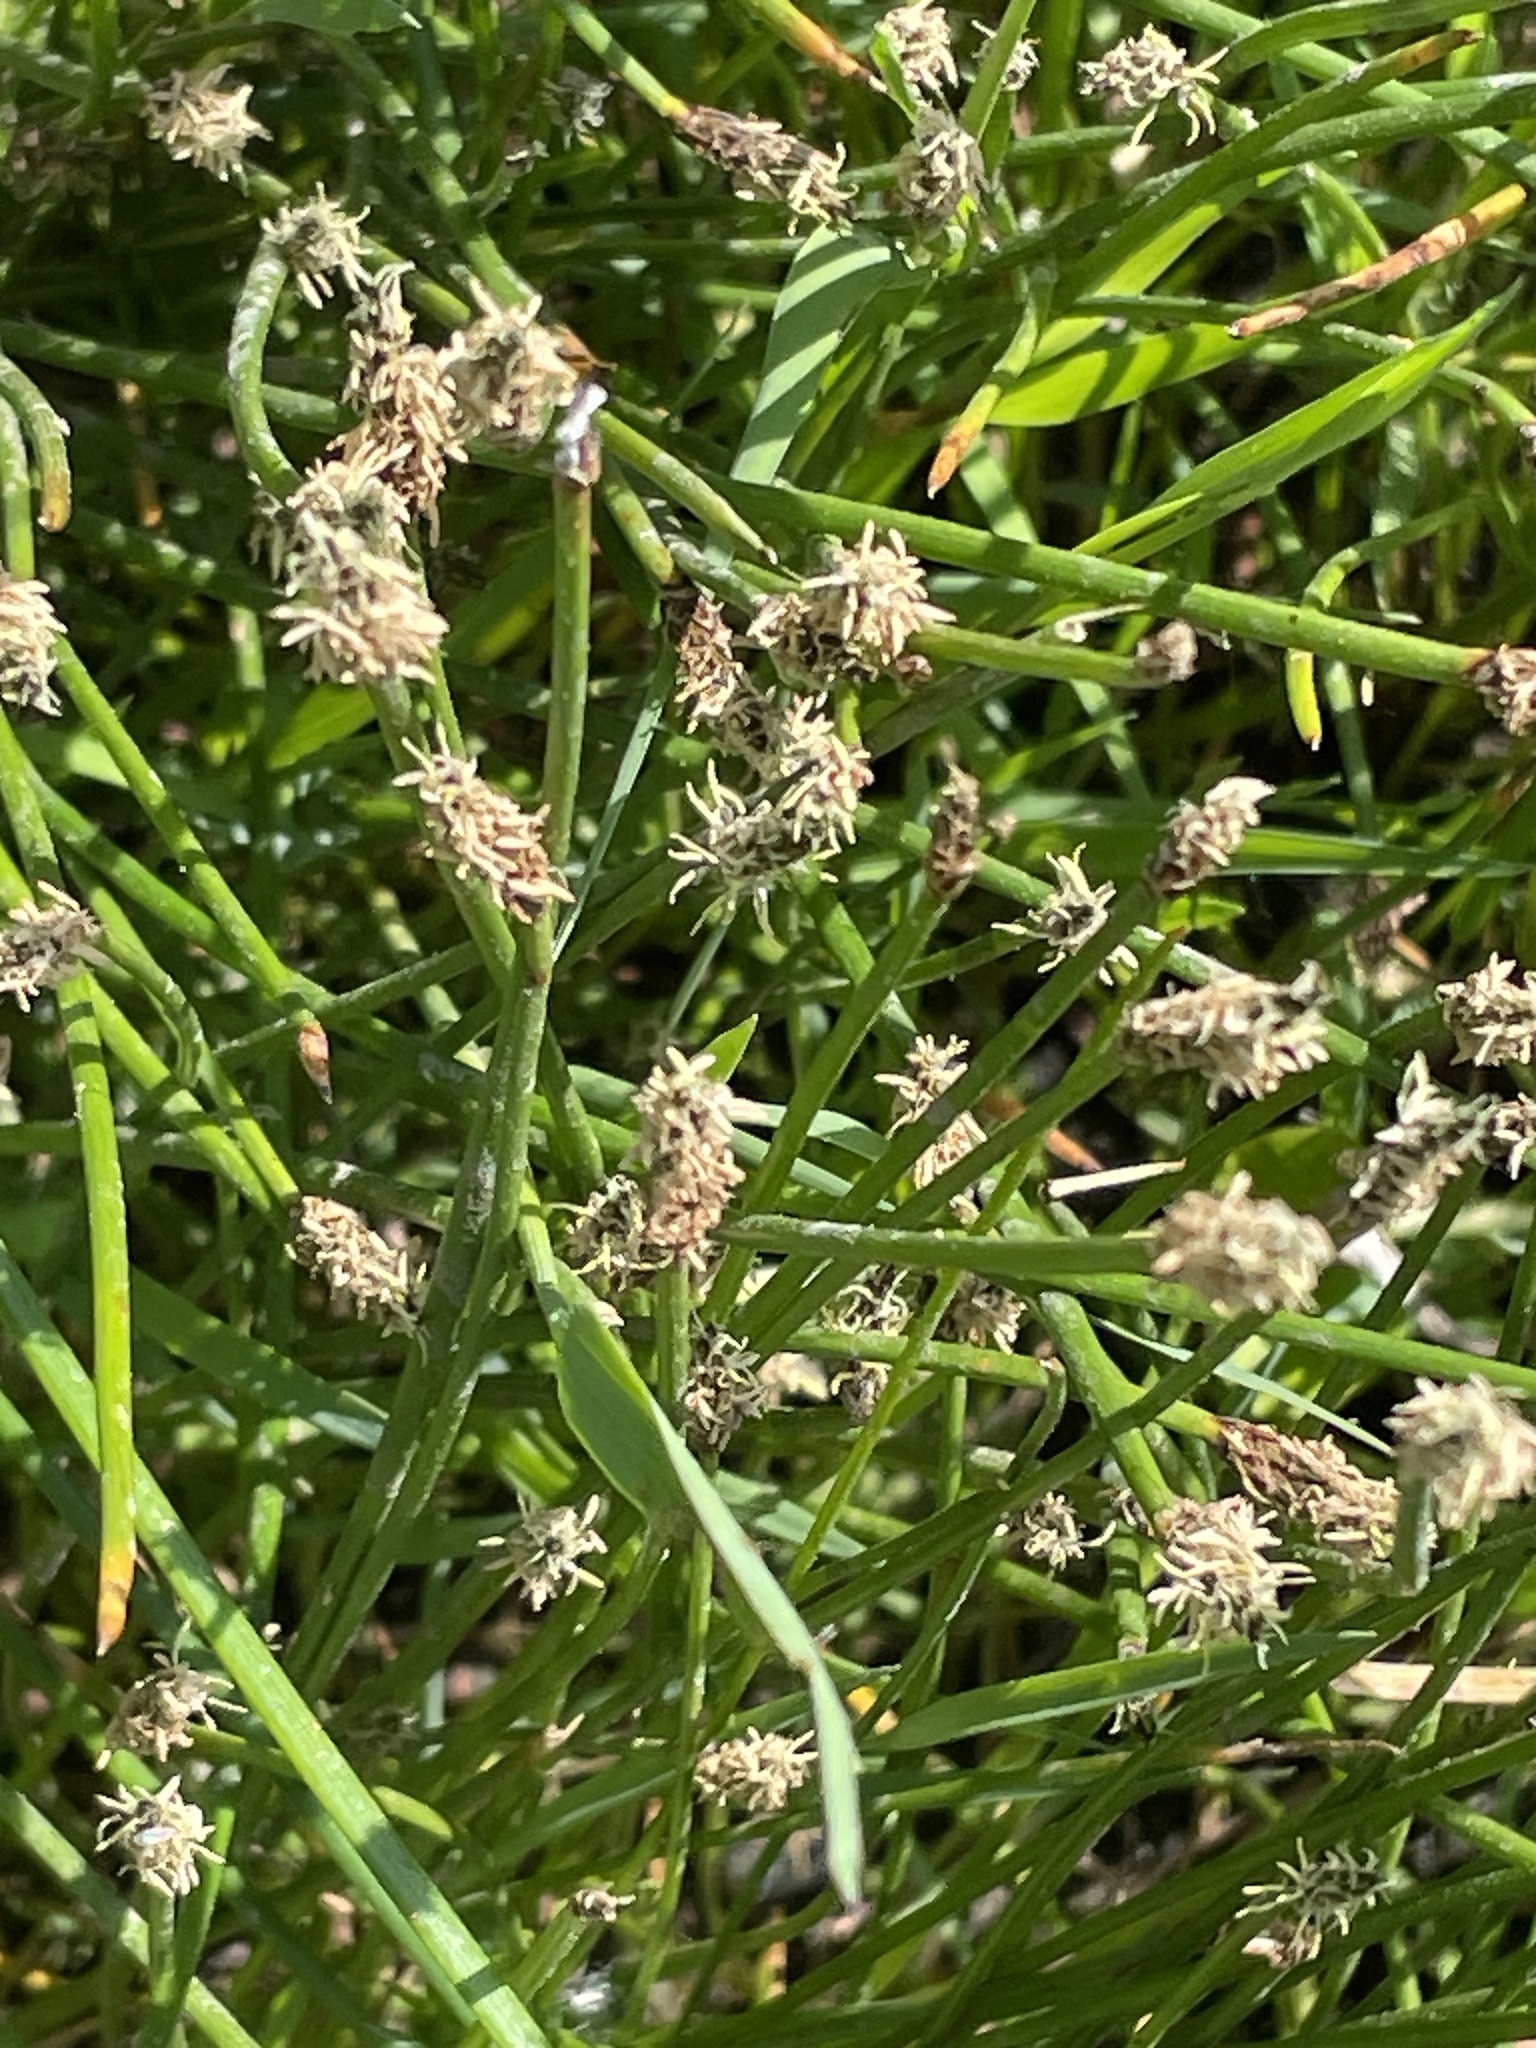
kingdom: Plantae
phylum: Tracheophyta
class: Liliopsida
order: Poales
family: Cyperaceae
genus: Eleocharis
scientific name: Eleocharis palustris
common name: Common spike-rush
